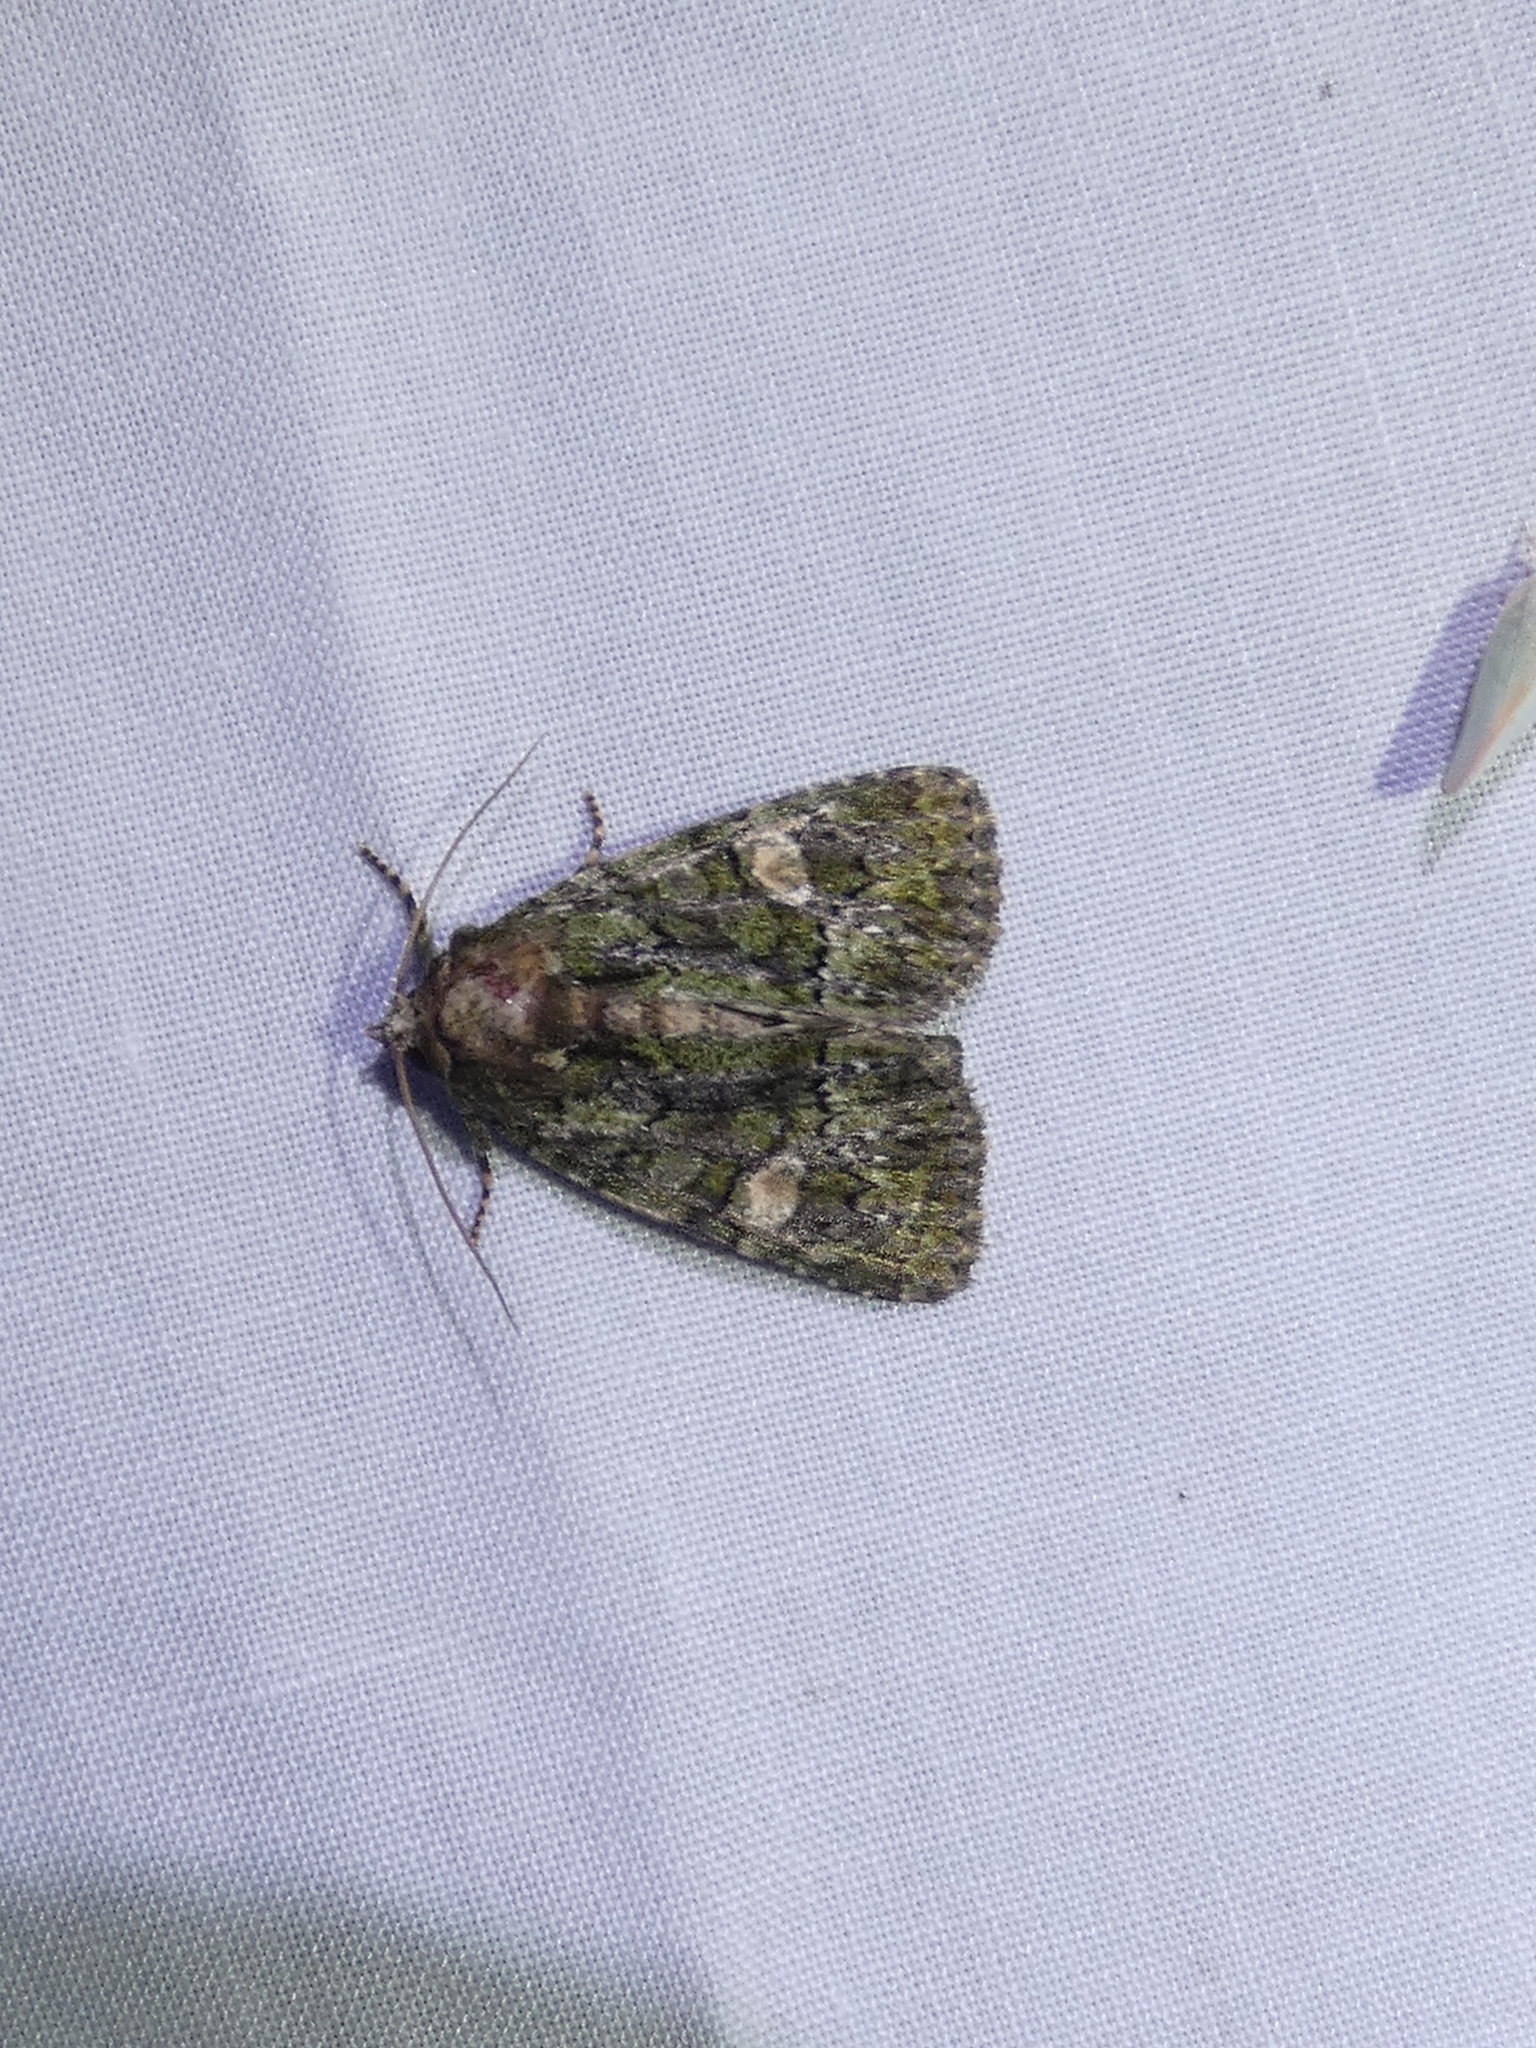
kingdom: Animalia
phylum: Arthropoda
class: Insecta
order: Lepidoptera
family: Noctuidae
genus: Phosphila
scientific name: Phosphila miselioides
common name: Spotted phosphila moth
